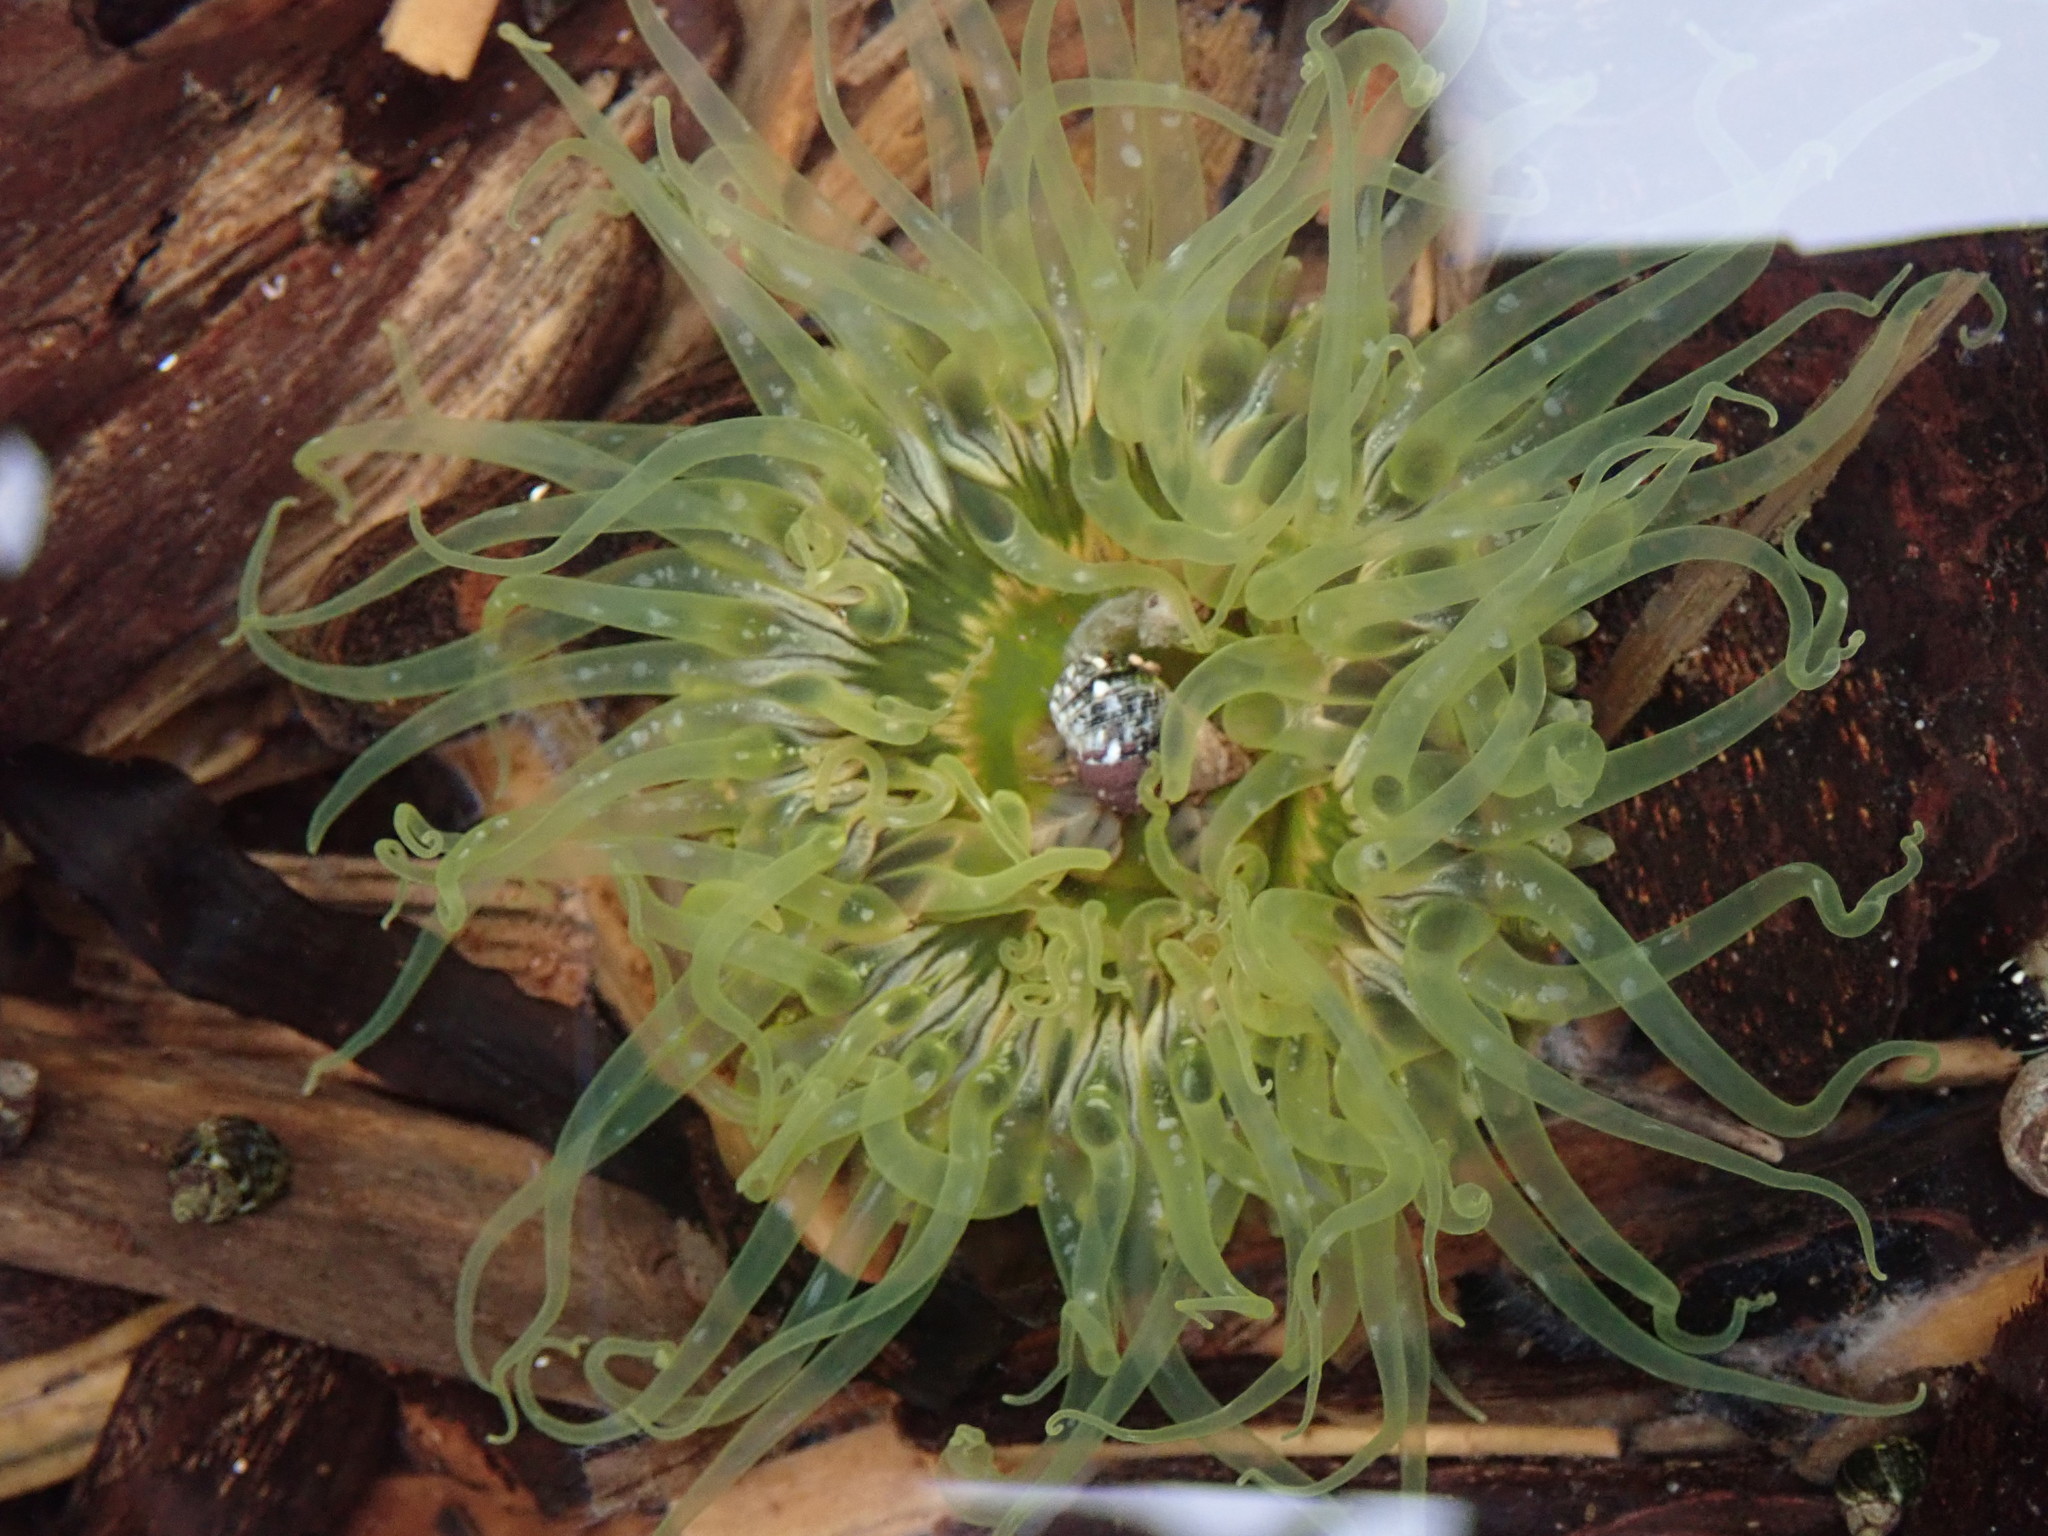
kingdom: Animalia
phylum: Cnidaria
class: Anthozoa
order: Actiniaria
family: Actiniidae
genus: Anthopleura
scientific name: Anthopleura artemisia
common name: Buried sea anemone
